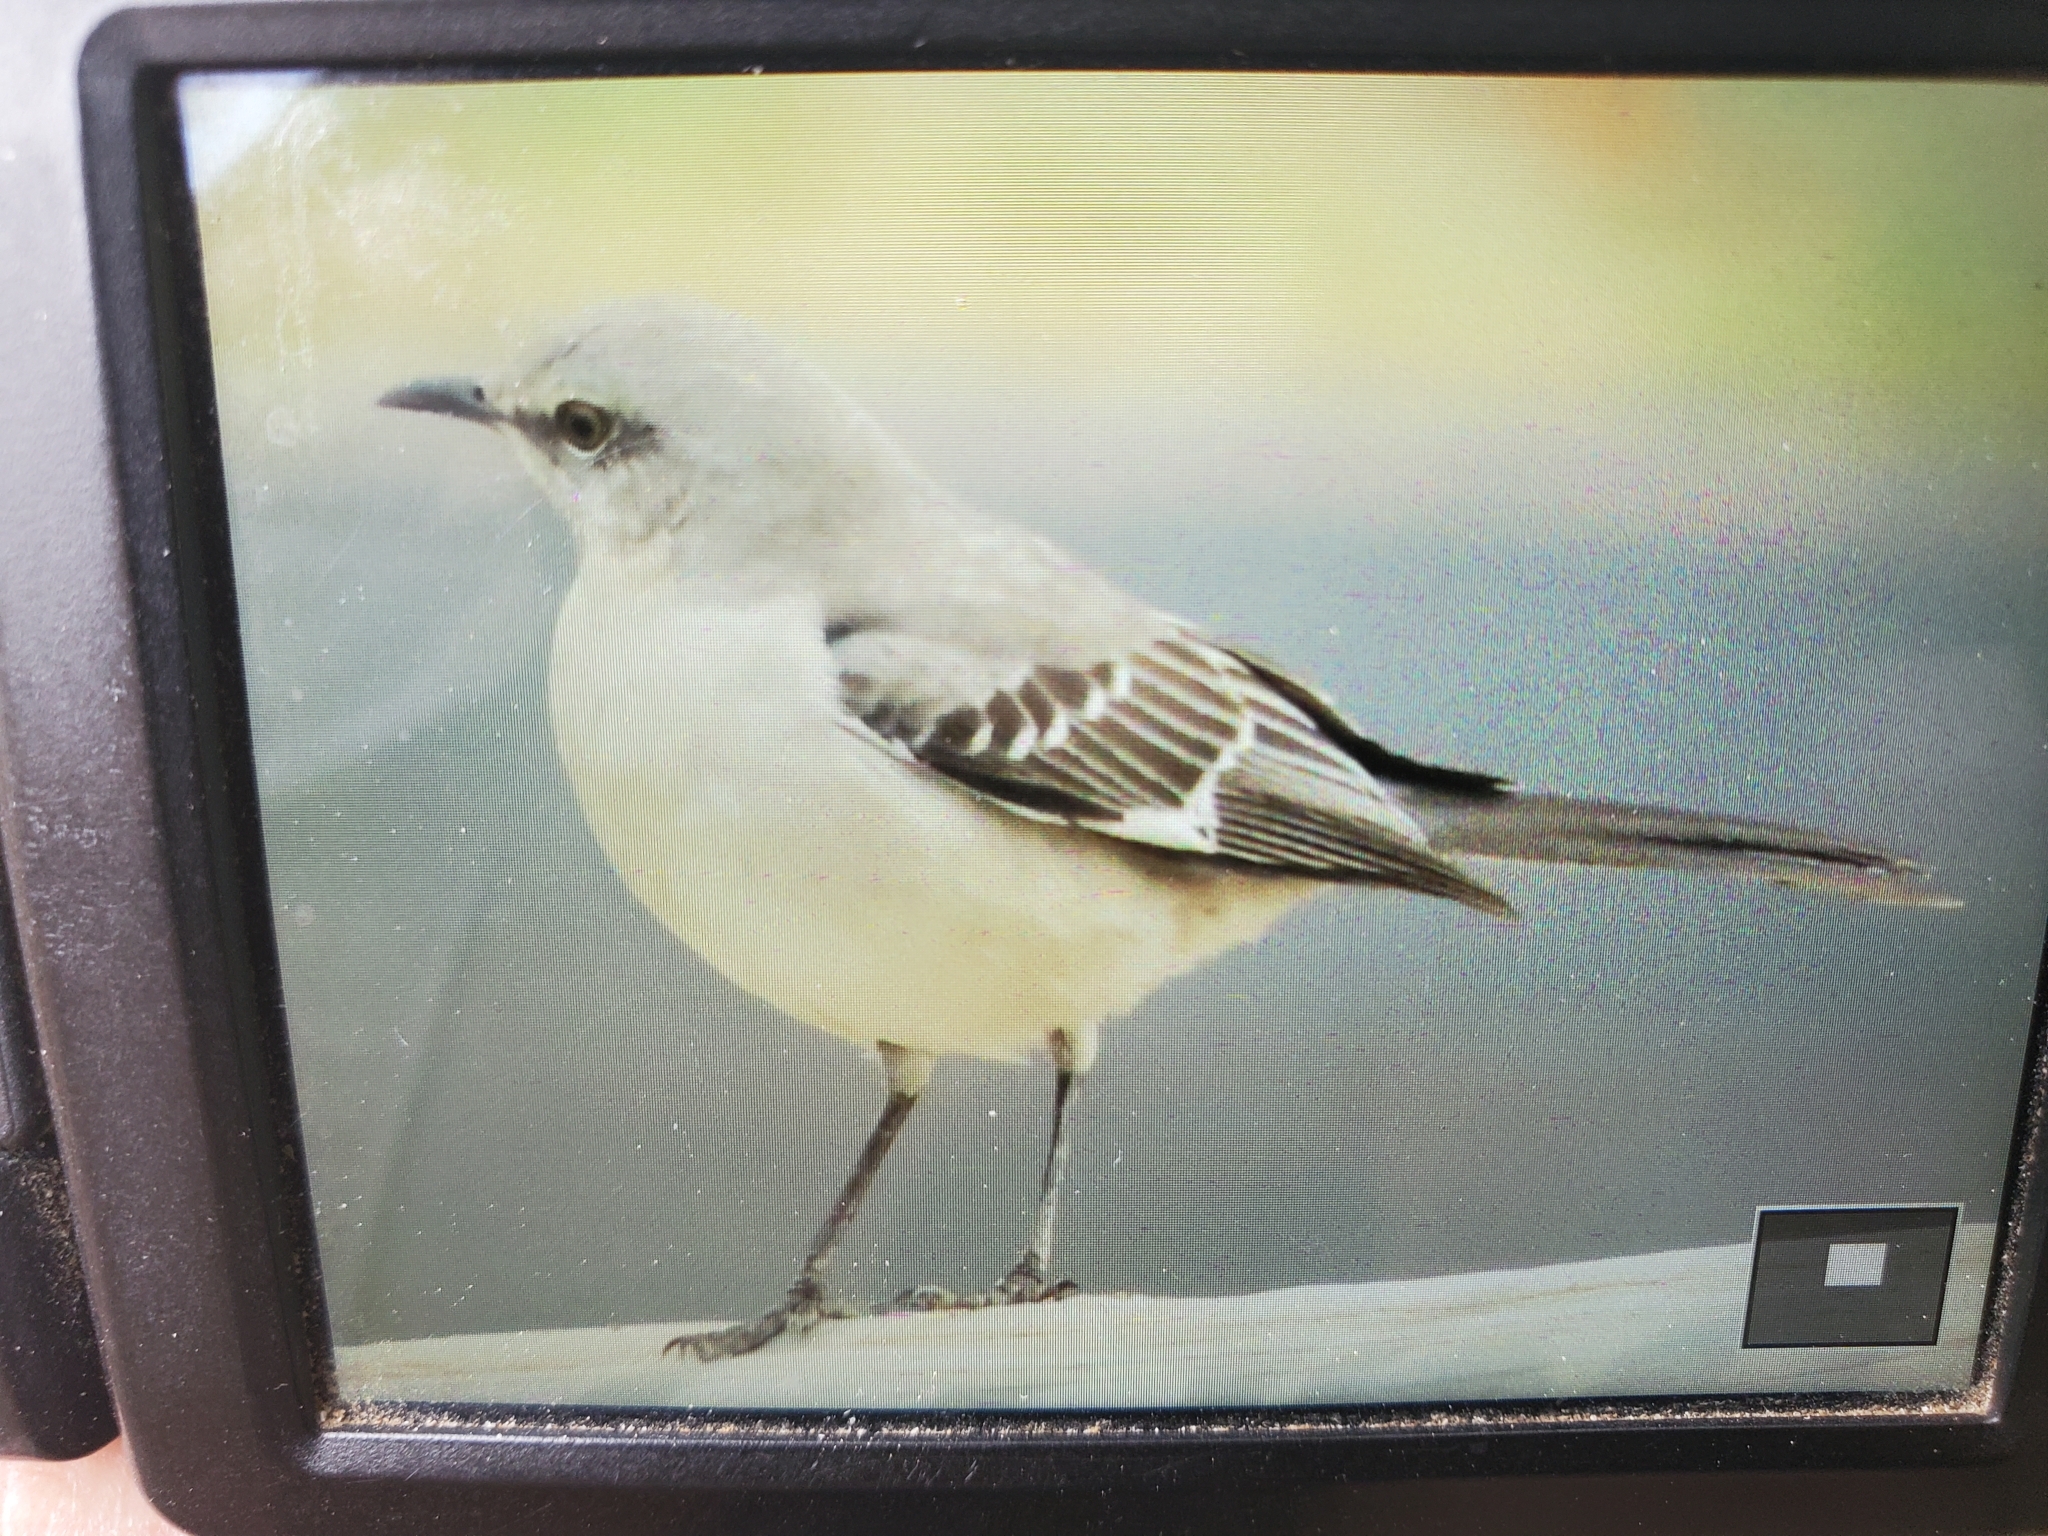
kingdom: Animalia
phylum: Chordata
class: Aves
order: Passeriformes
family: Mimidae
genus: Mimus
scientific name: Mimus polyglottos
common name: Northern mockingbird
